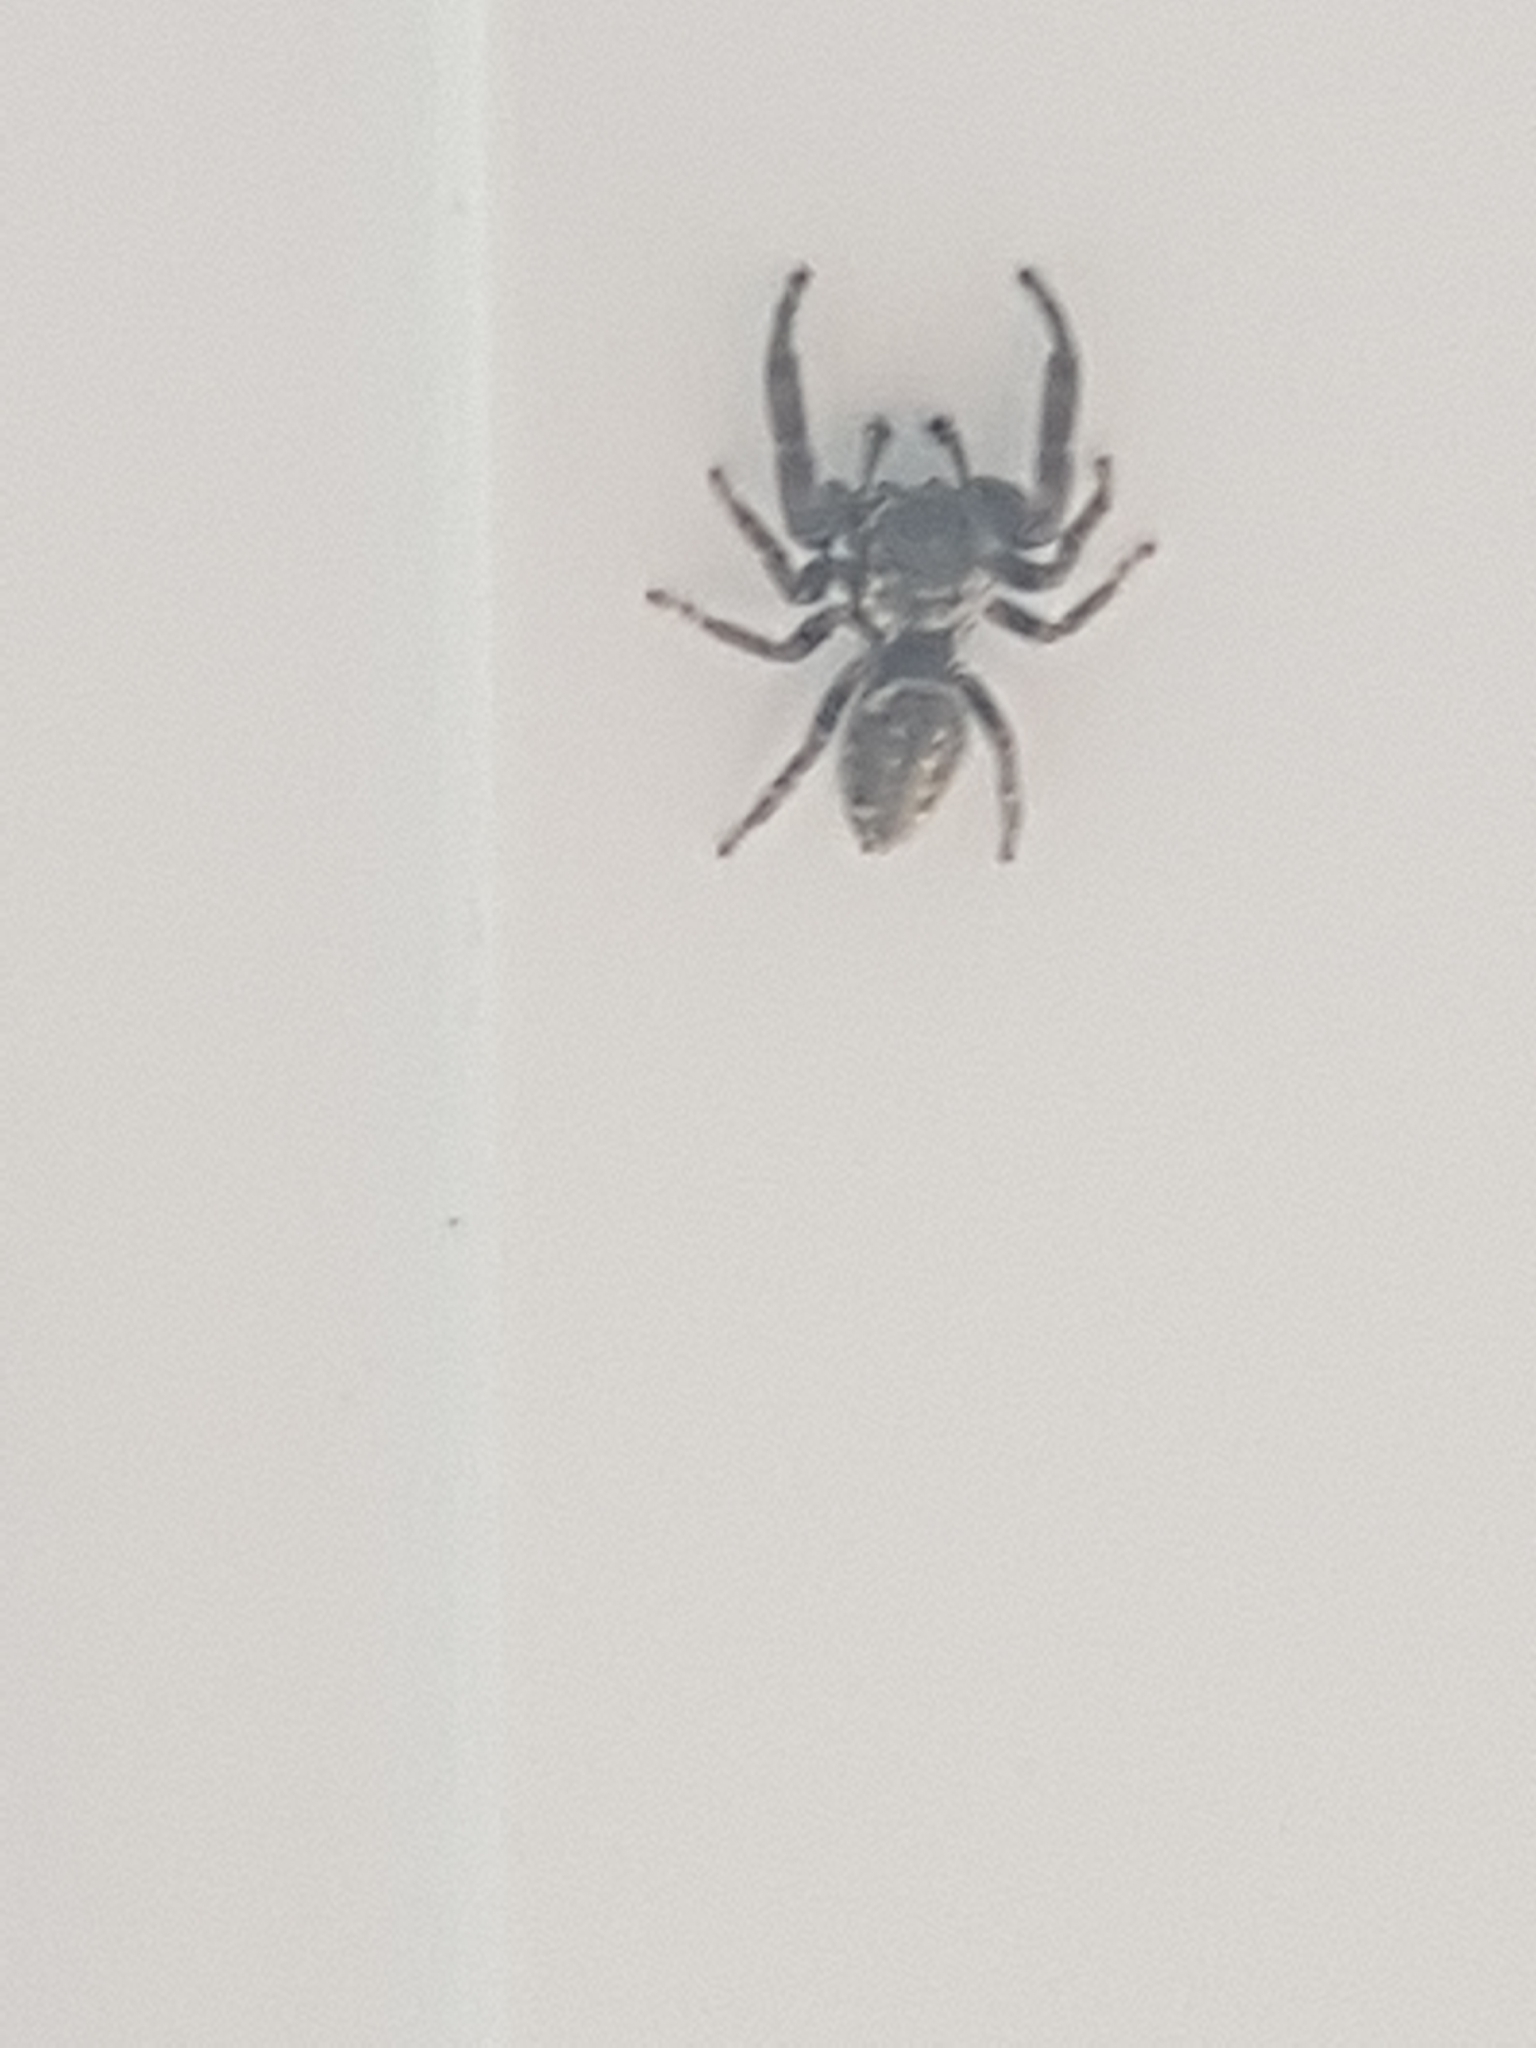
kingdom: Animalia
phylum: Arthropoda
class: Arachnida
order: Araneae
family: Salticidae
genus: Macaroeris
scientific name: Macaroeris nidicolens
